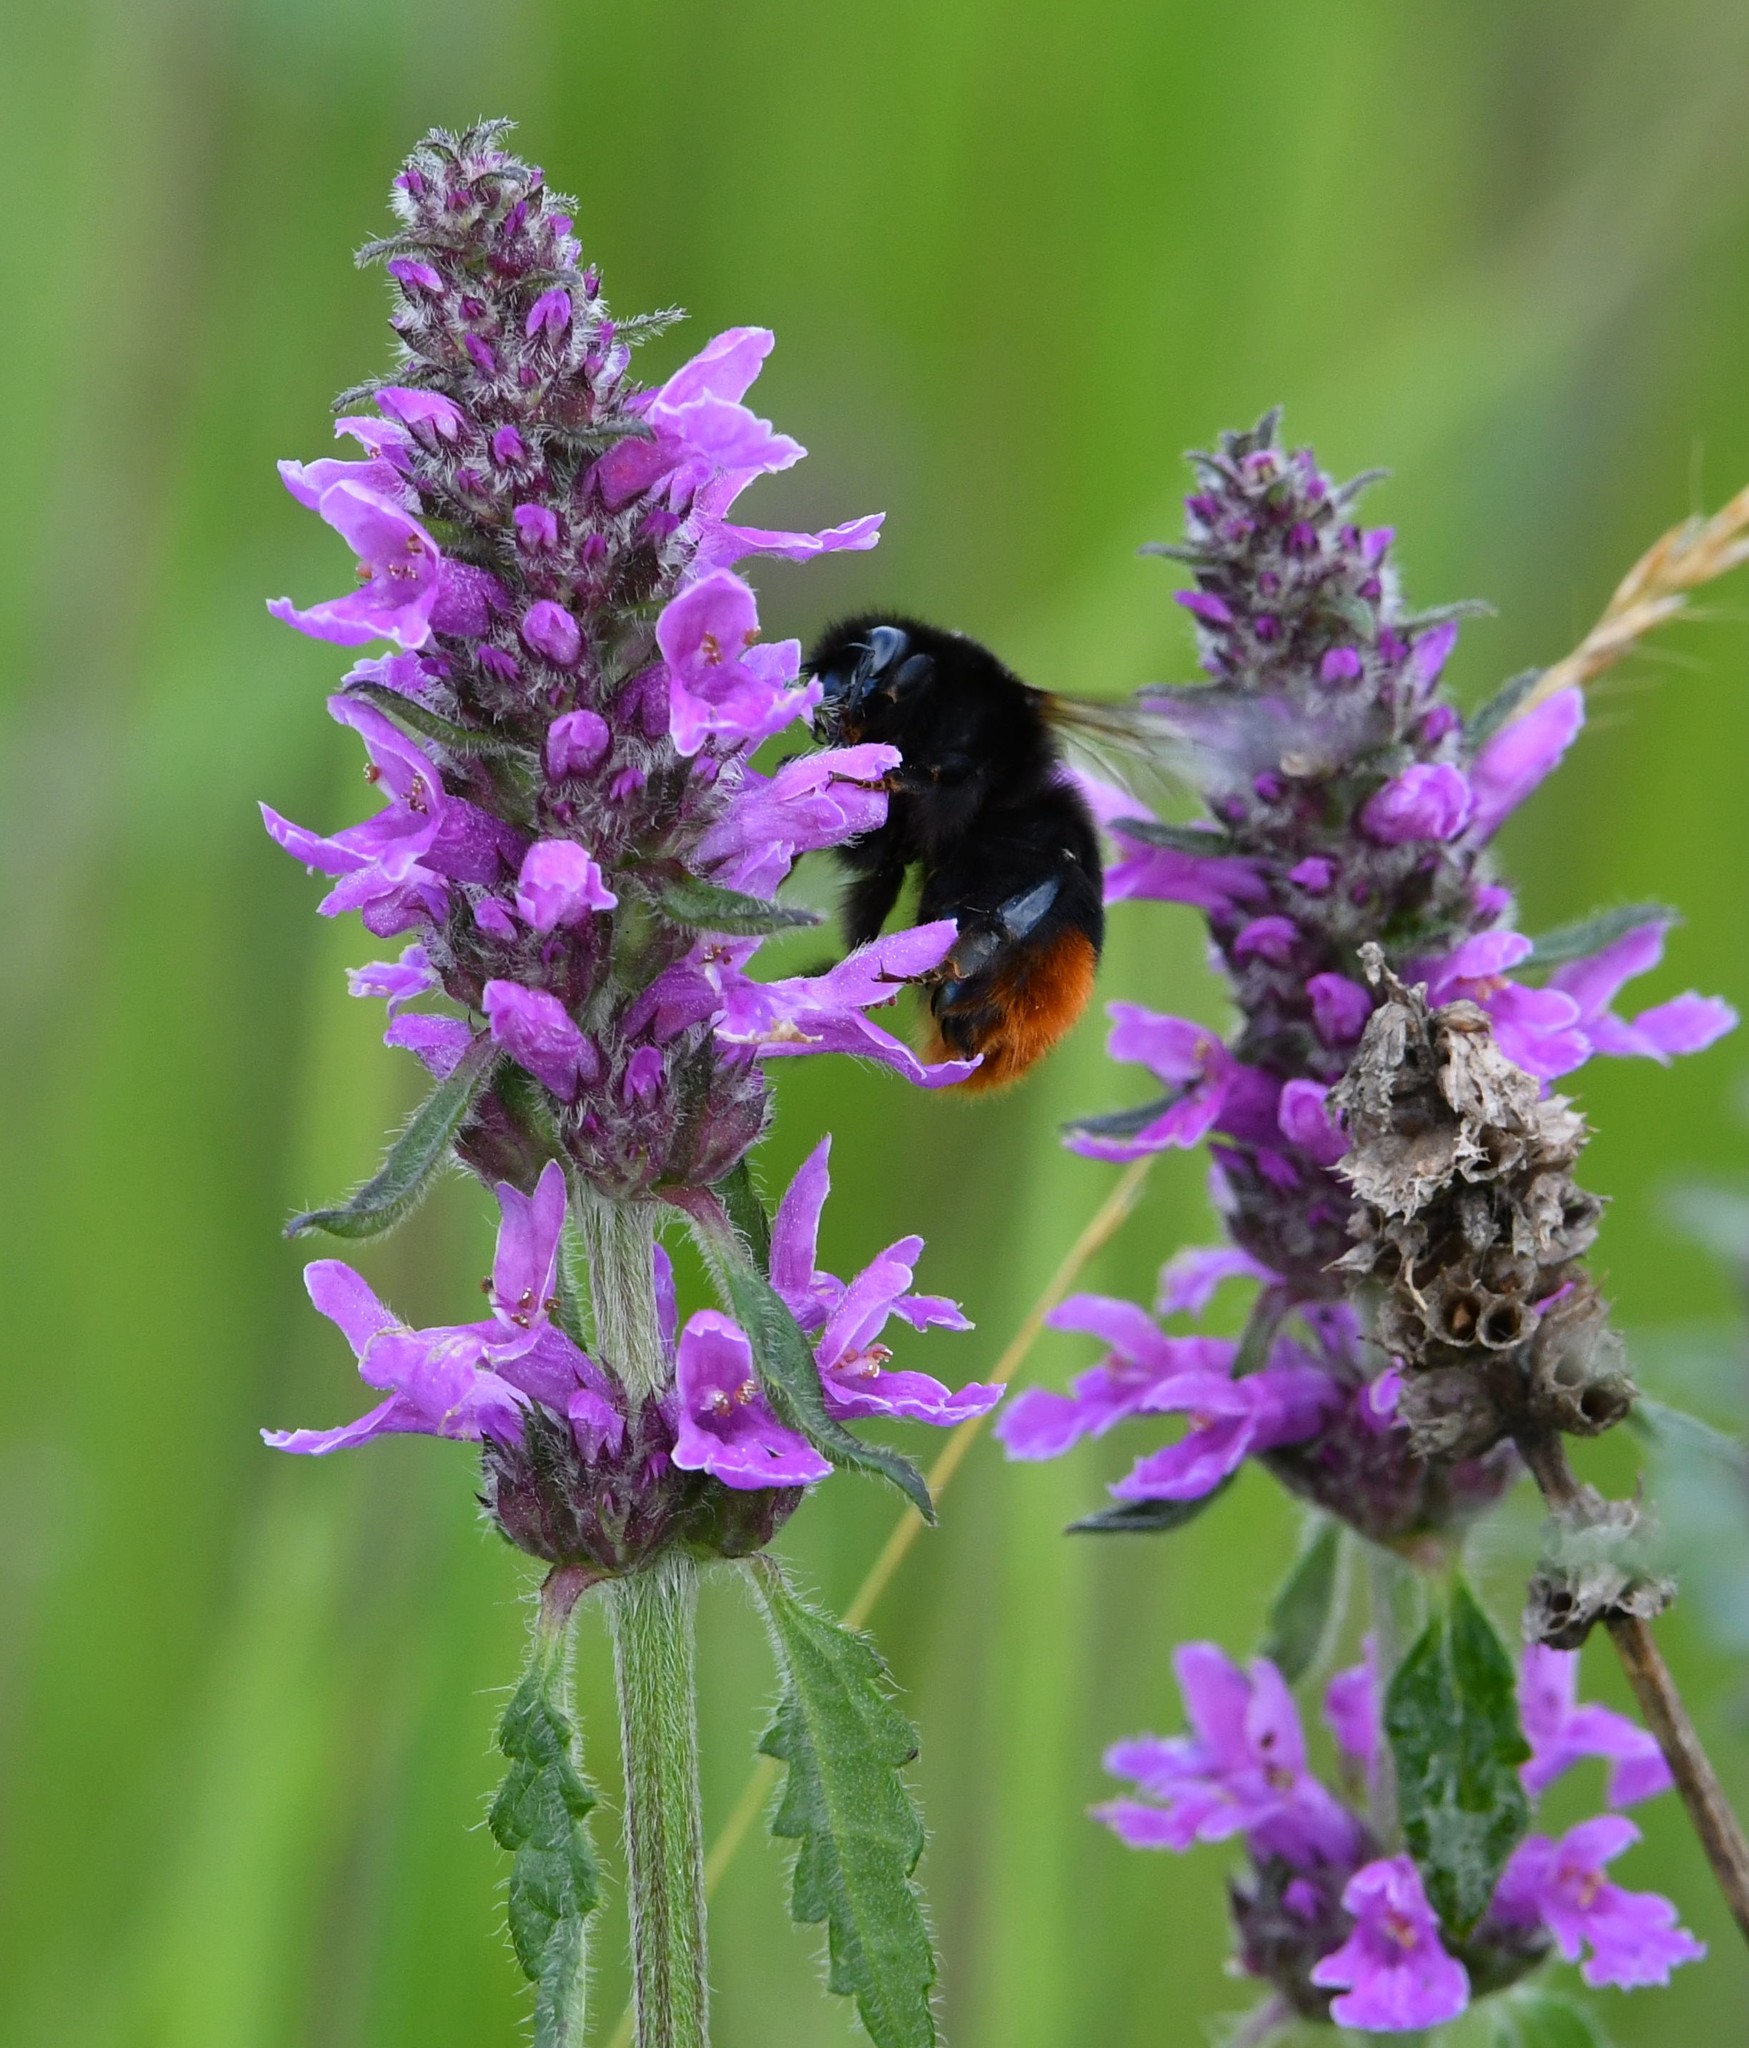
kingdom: Plantae
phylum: Tracheophyta
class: Magnoliopsida
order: Lamiales
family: Lamiaceae
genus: Betonica
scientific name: Betonica officinalis
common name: Bishop's-wort
